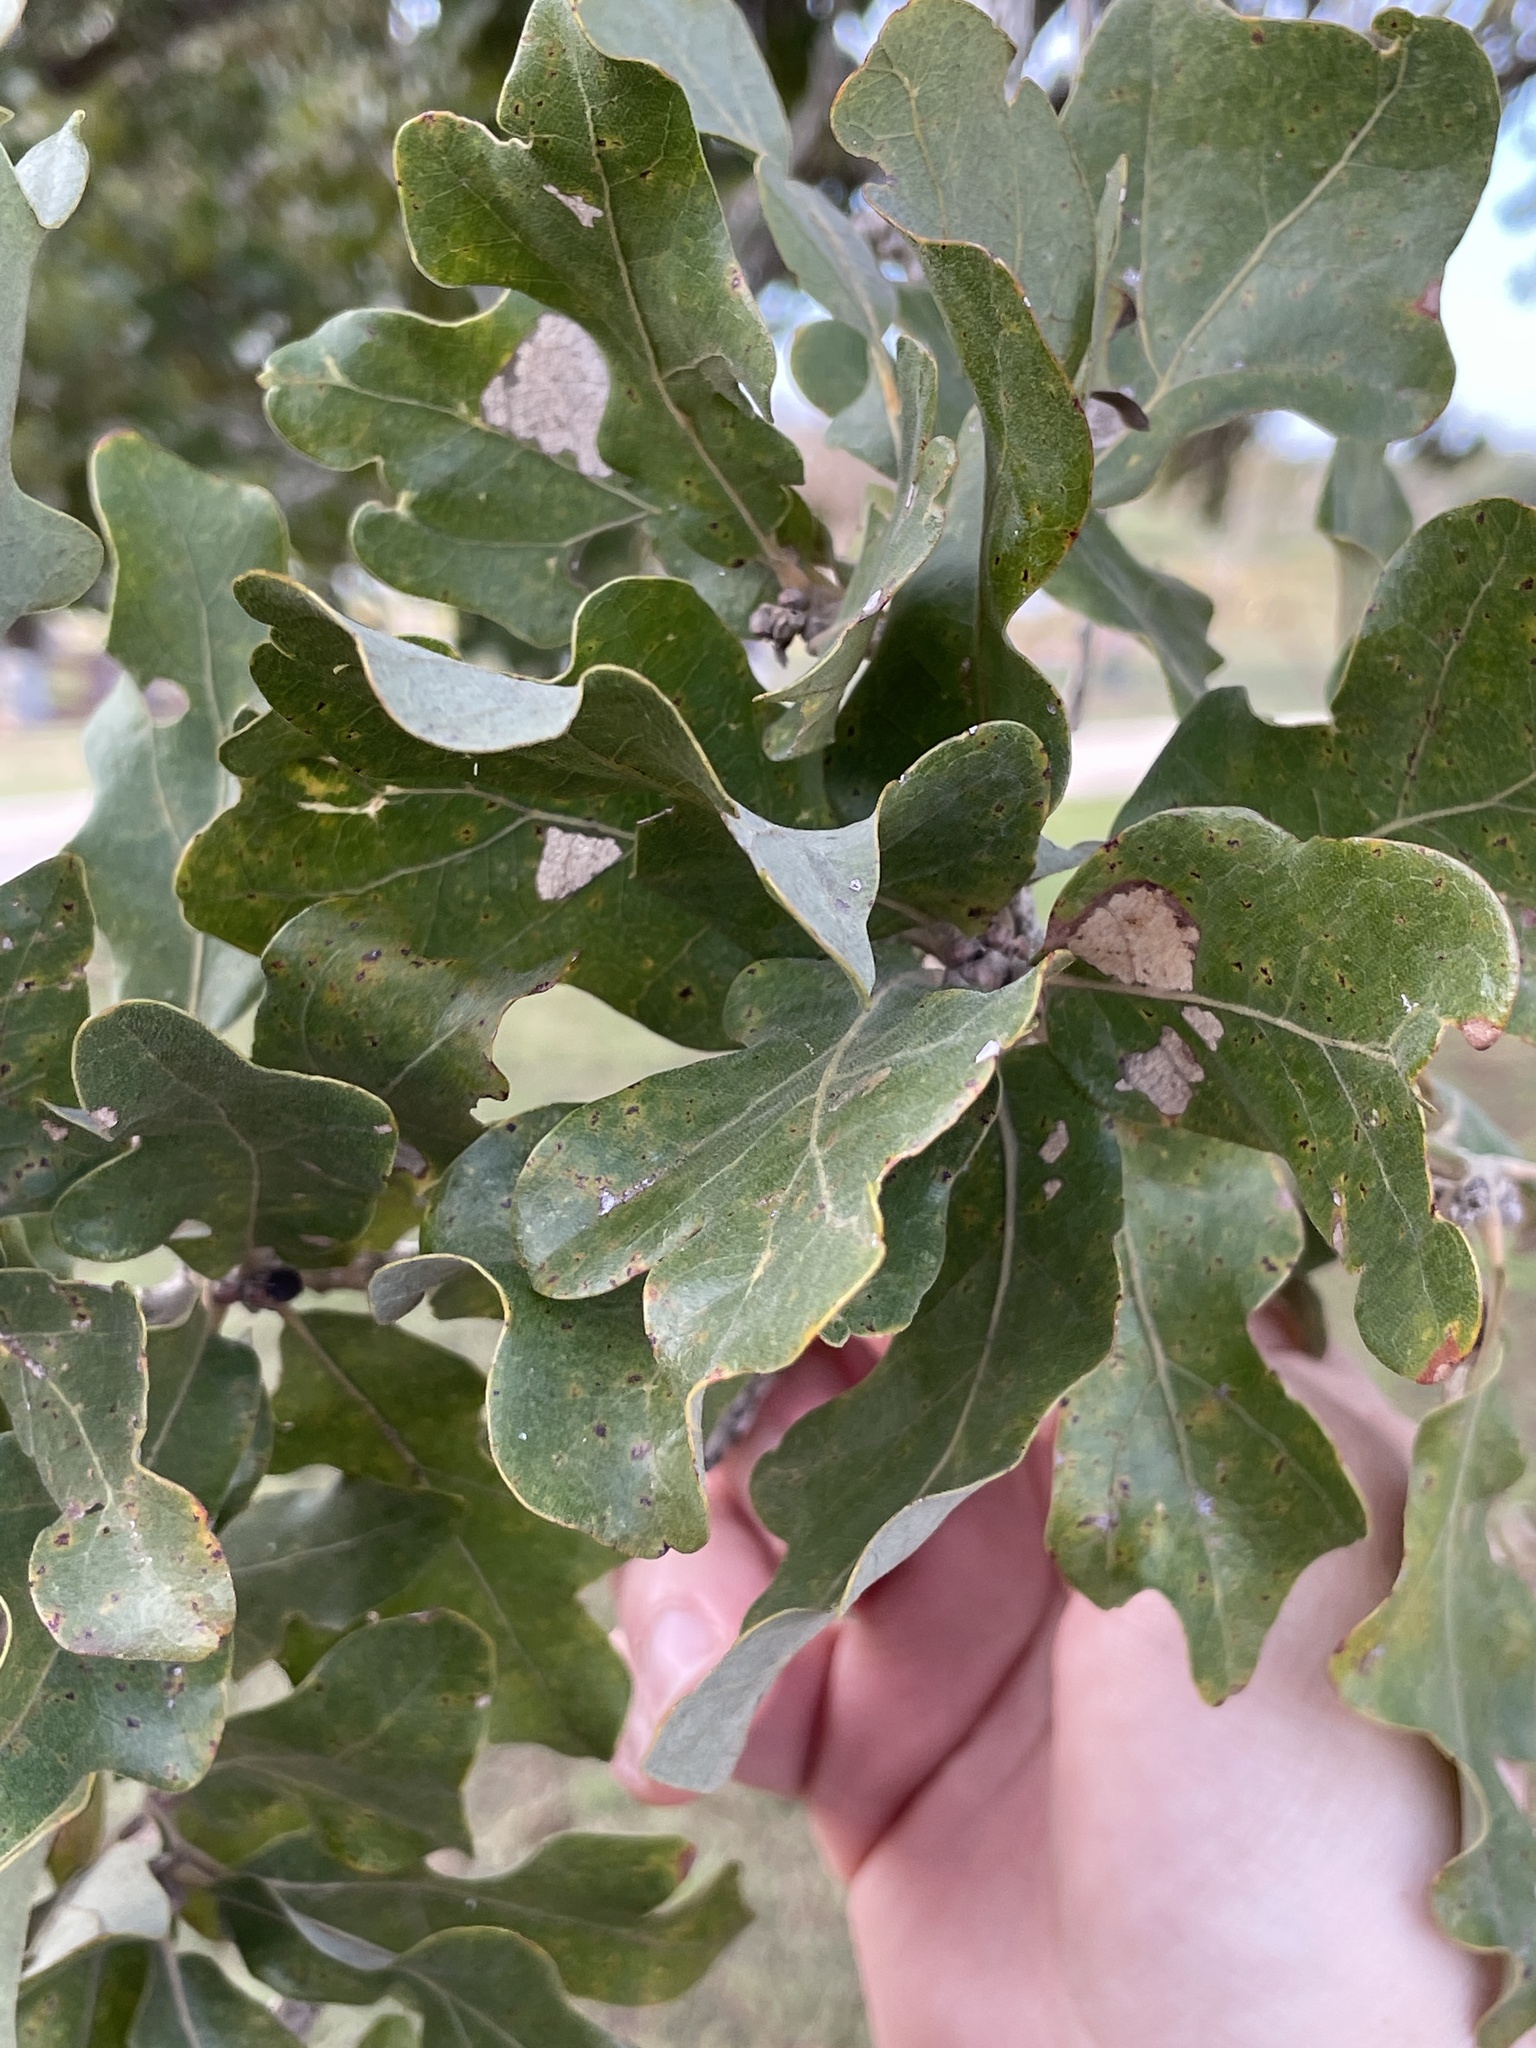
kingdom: Plantae
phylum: Tracheophyta
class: Magnoliopsida
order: Fagales
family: Fagaceae
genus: Quercus
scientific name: Quercus stellata
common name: Post oak
